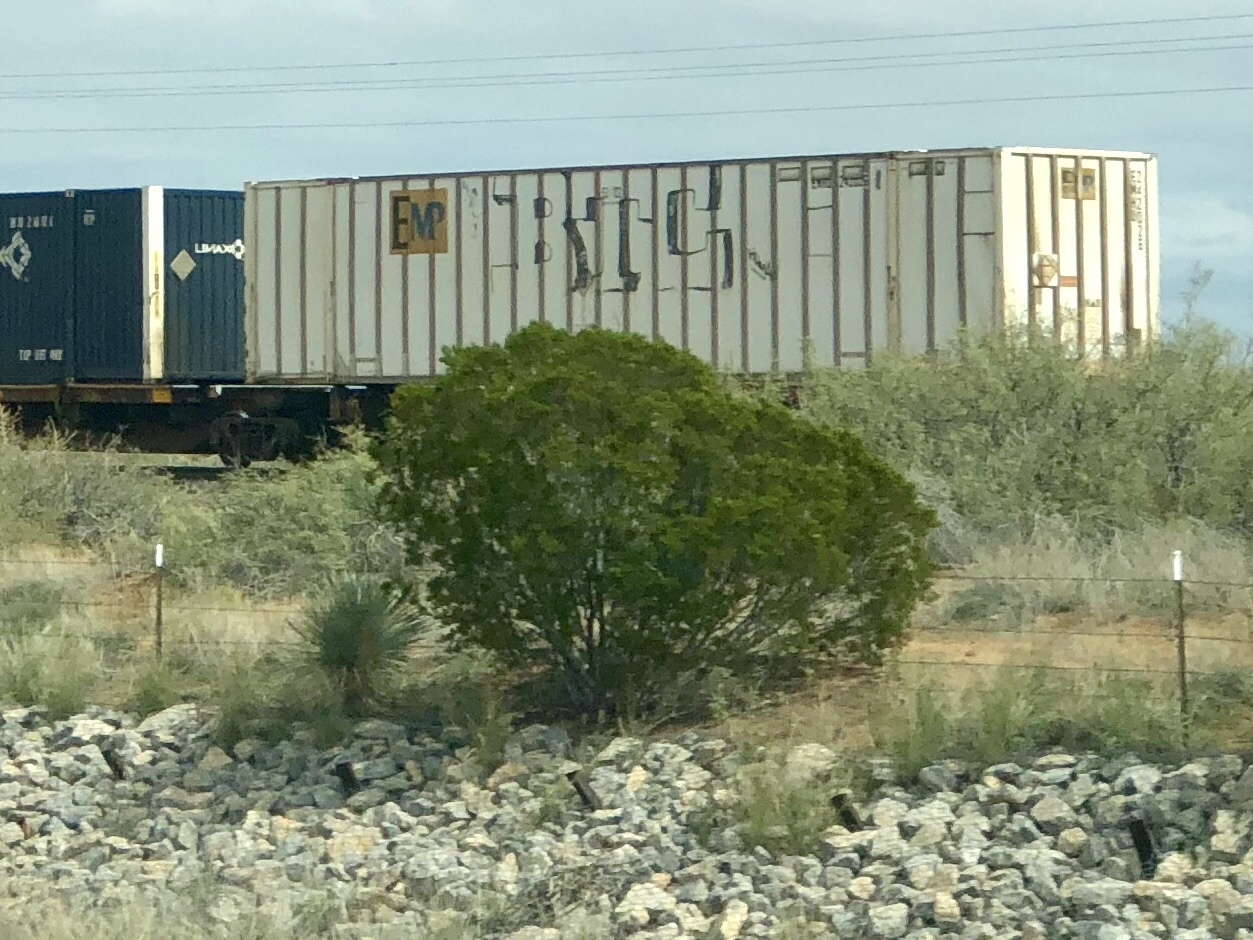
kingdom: Plantae
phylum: Tracheophyta
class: Magnoliopsida
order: Zygophyllales
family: Zygophyllaceae
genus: Larrea
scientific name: Larrea tridentata
